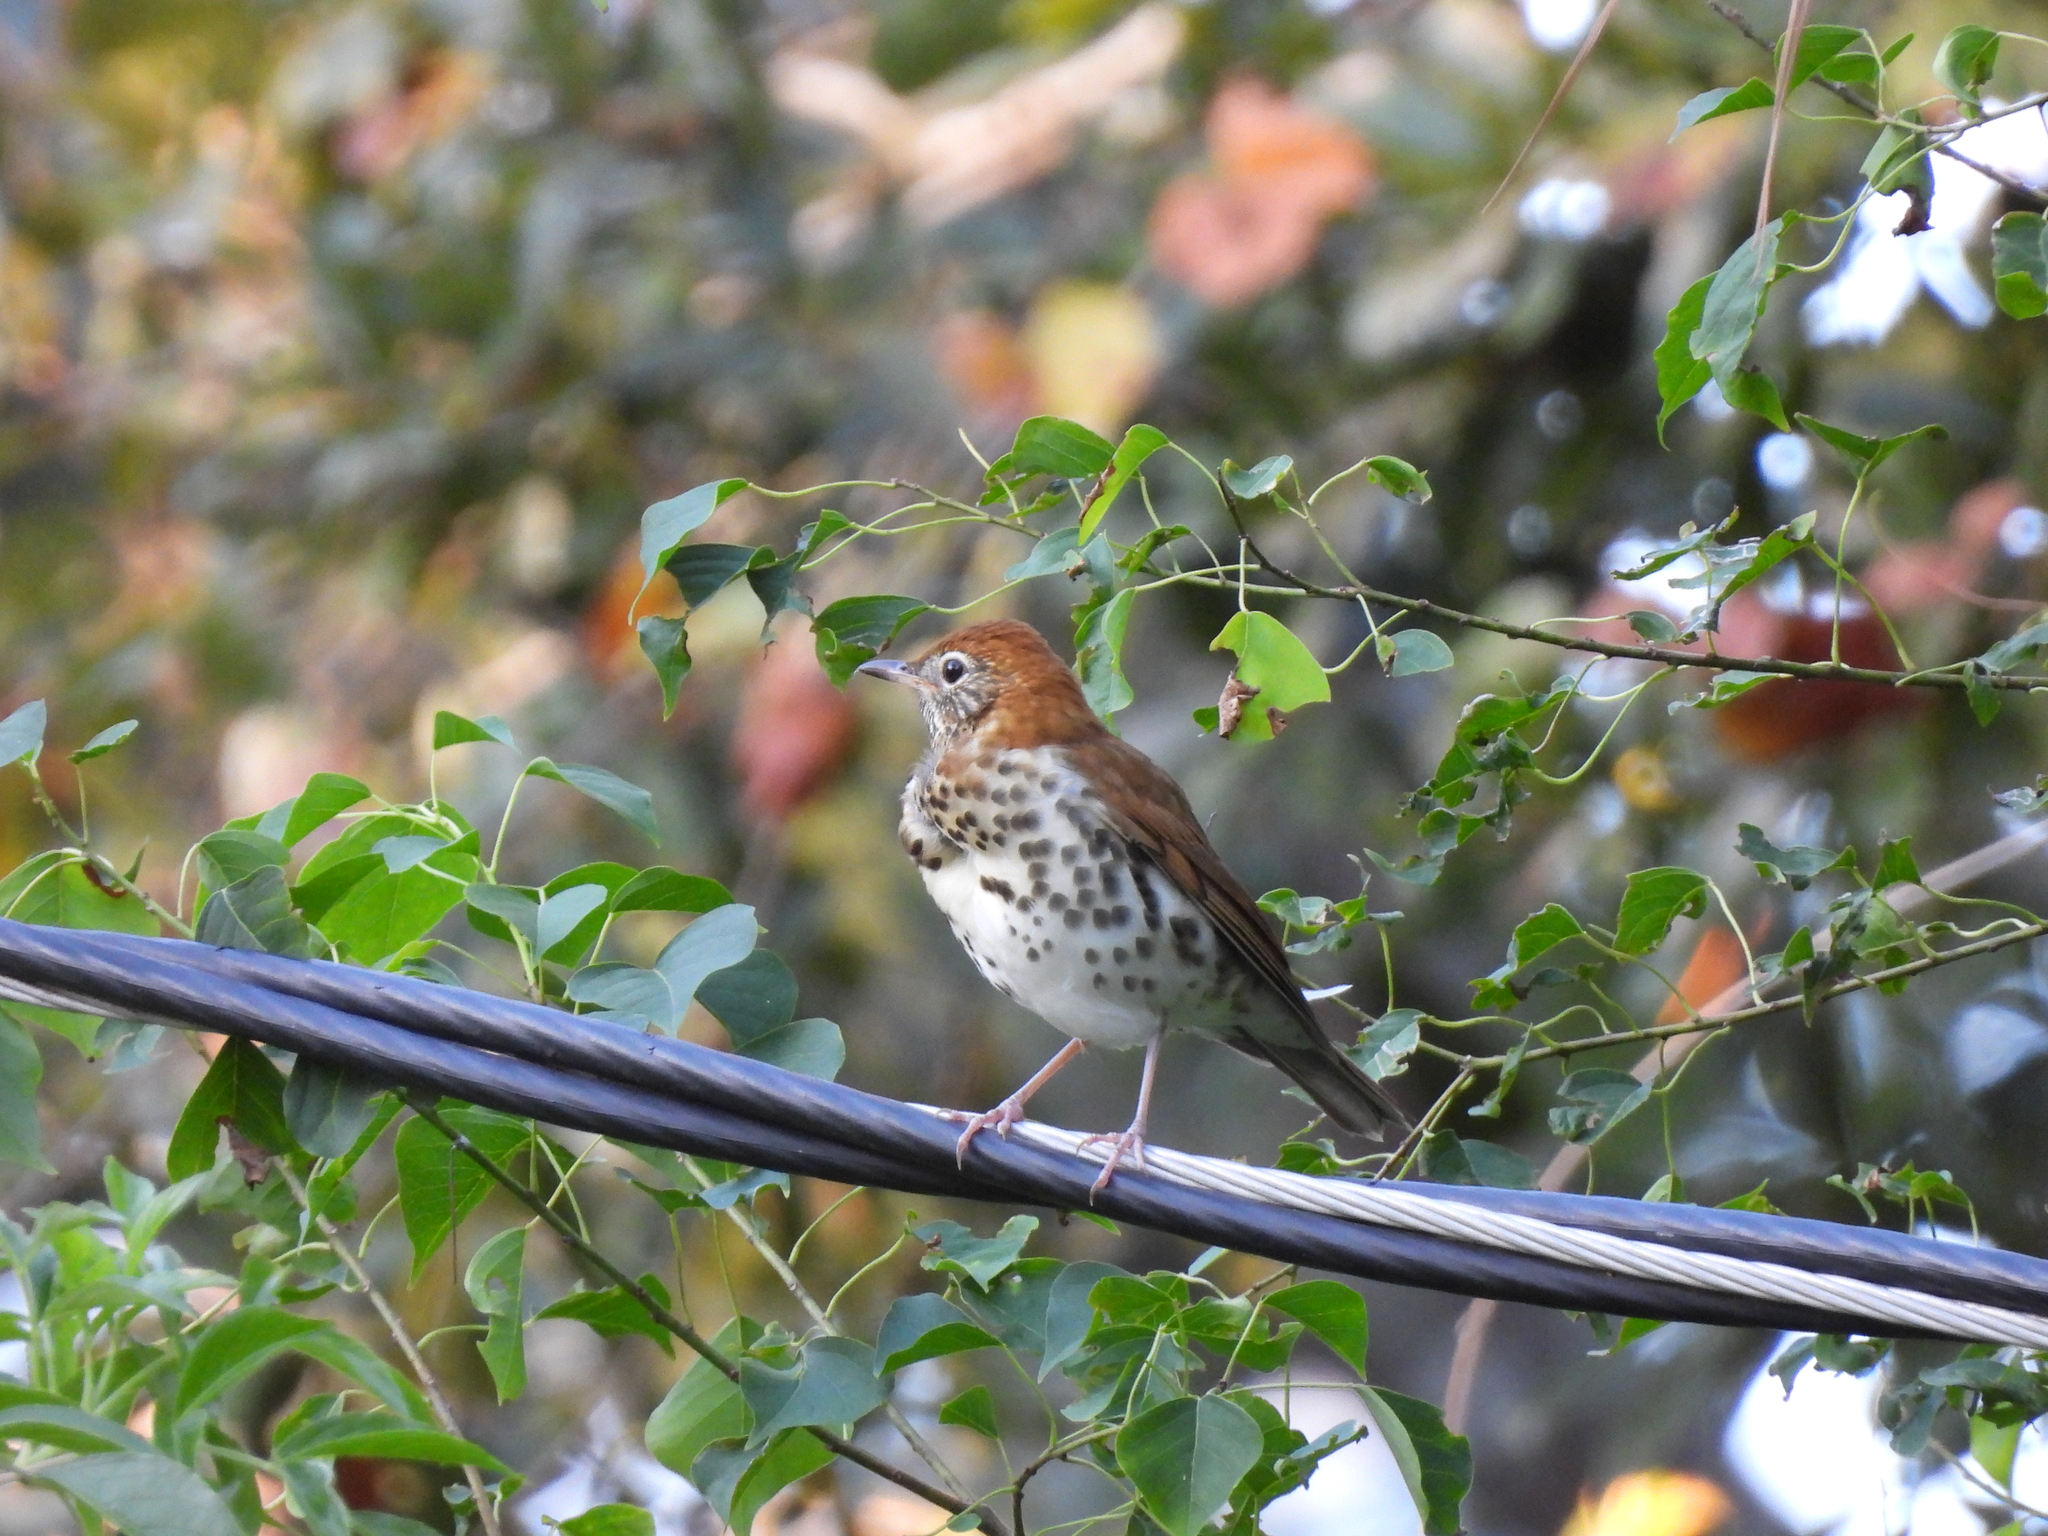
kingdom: Animalia
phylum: Chordata
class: Aves
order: Passeriformes
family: Turdidae
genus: Hylocichla
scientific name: Hylocichla mustelina
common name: Wood thrush
